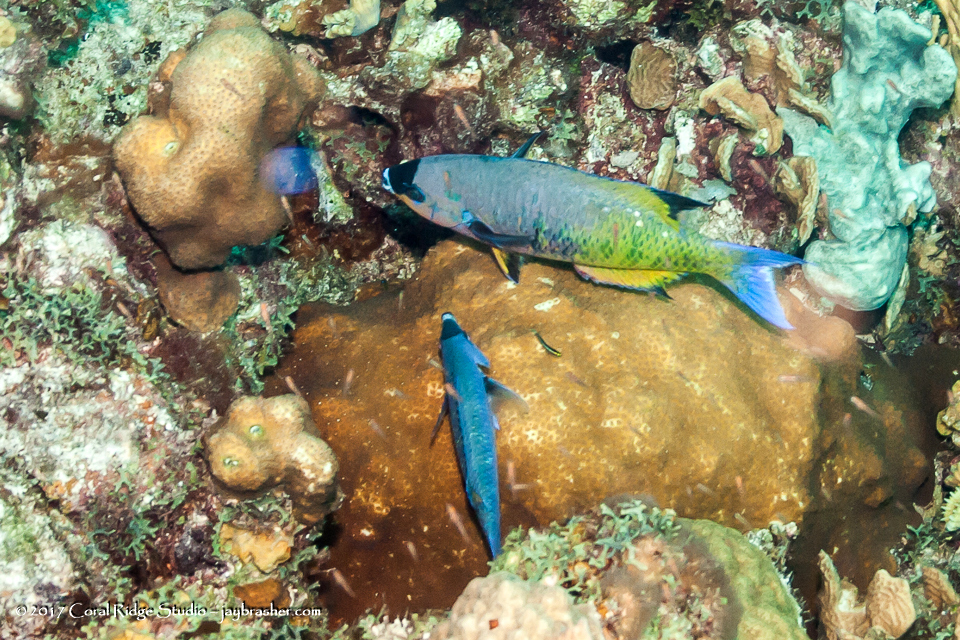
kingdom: Animalia
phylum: Chordata
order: Perciformes
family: Labridae
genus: Bodianus
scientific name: Bodianus
